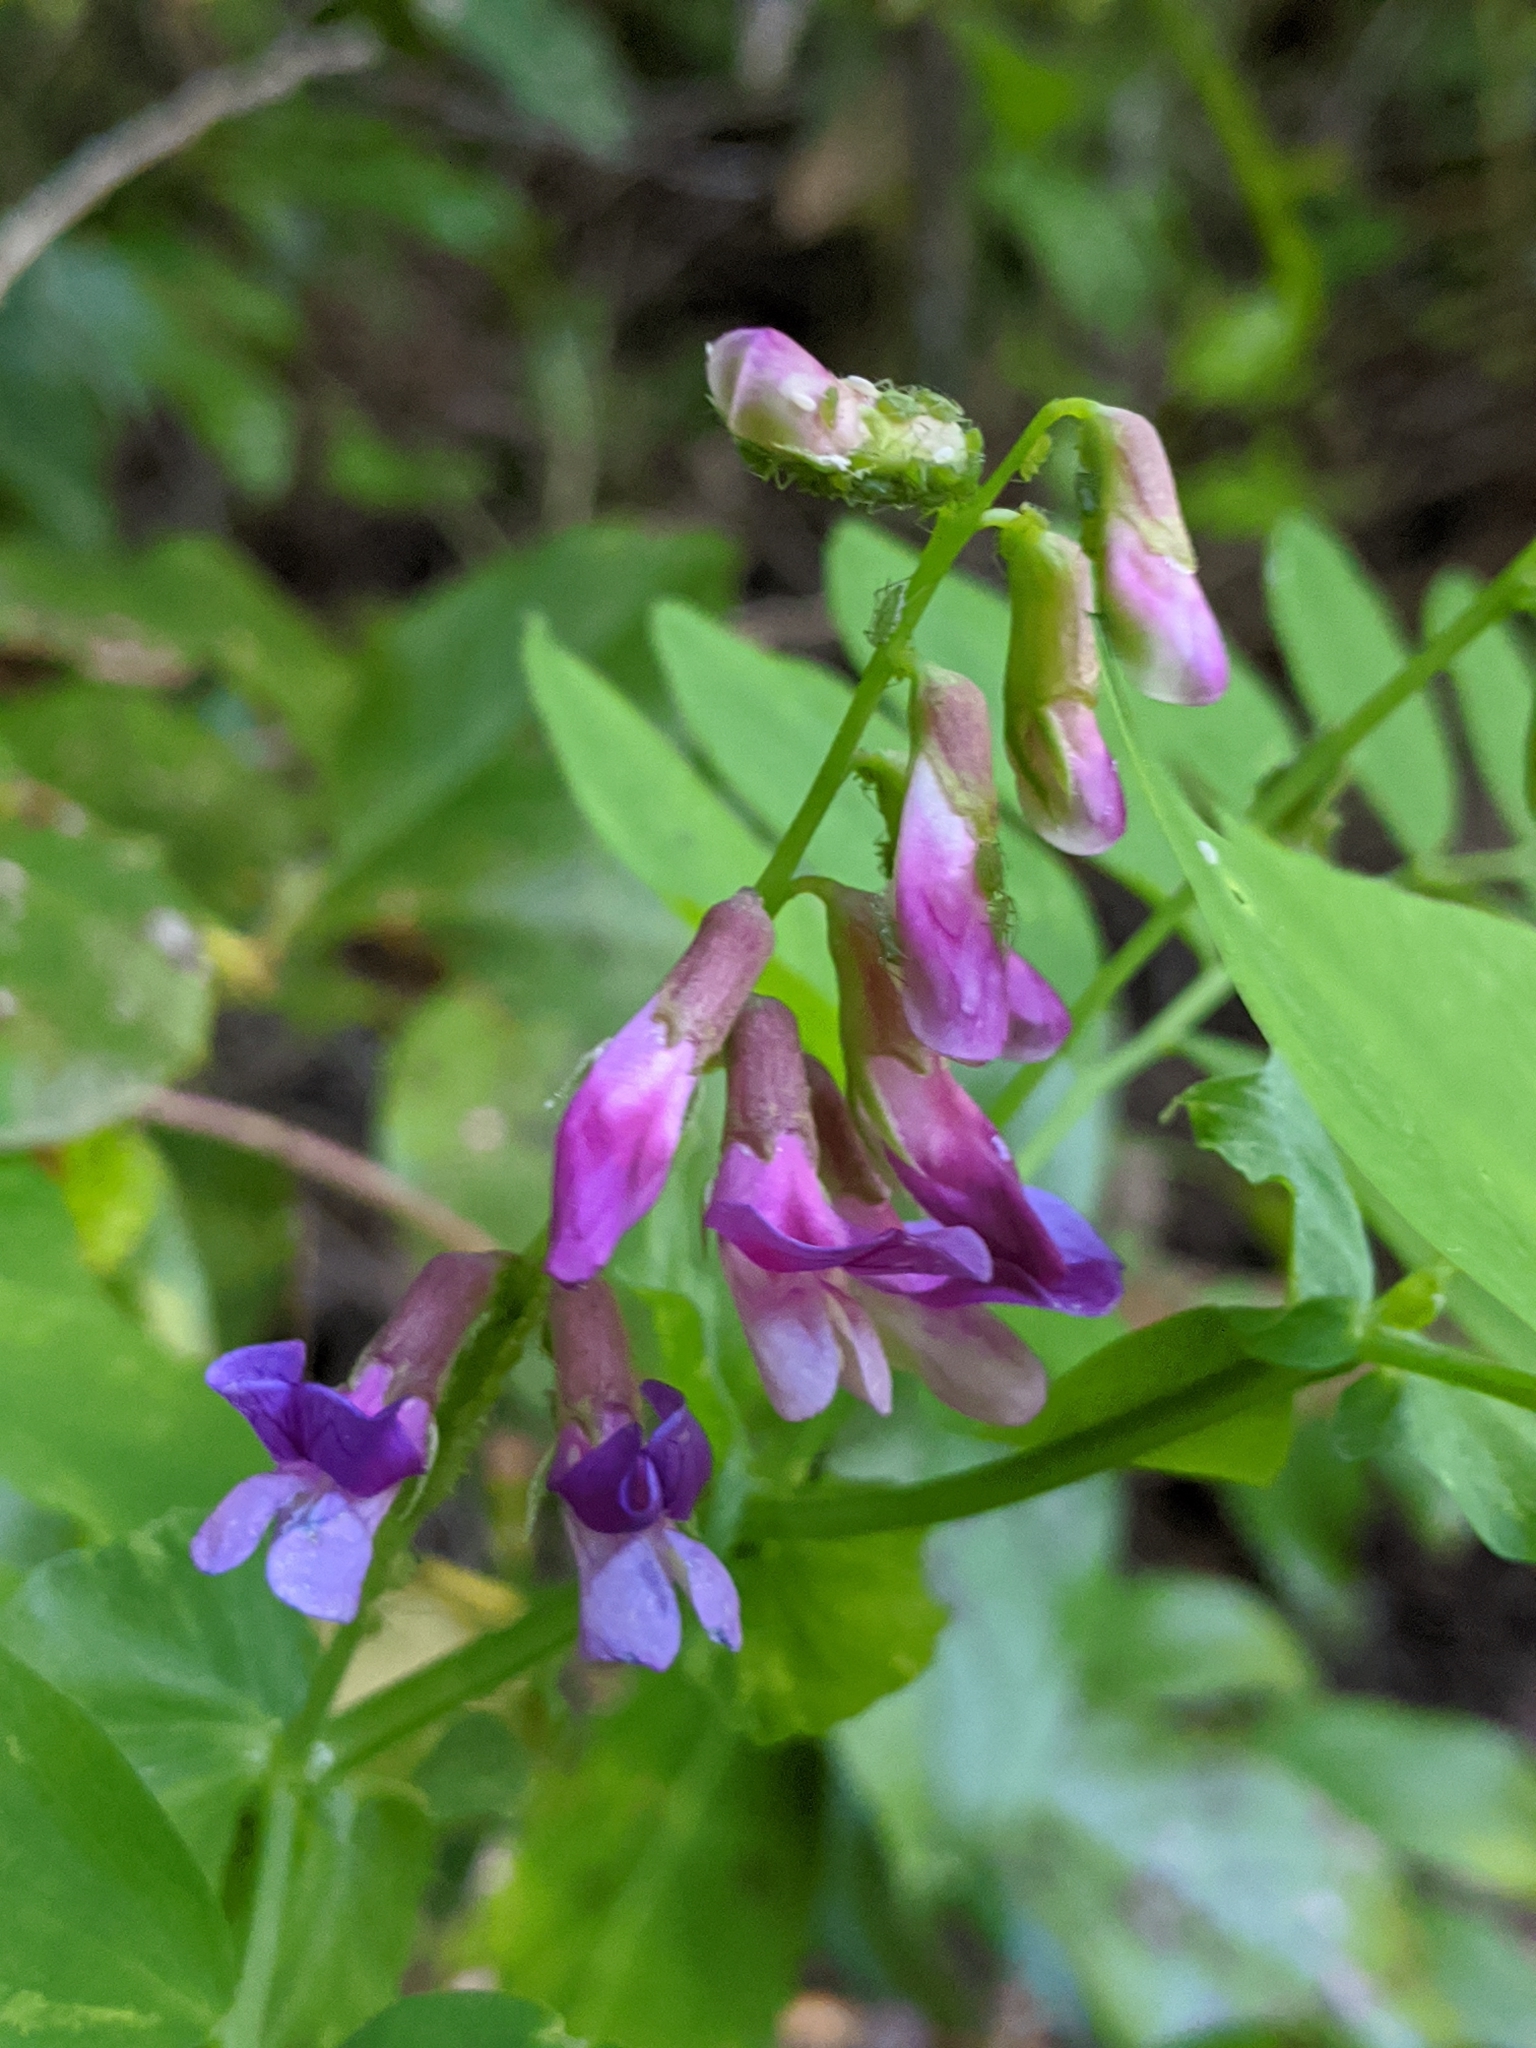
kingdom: Plantae
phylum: Tracheophyta
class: Magnoliopsida
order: Fabales
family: Fabaceae
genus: Lathyrus
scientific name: Lathyrus polyphyllus
